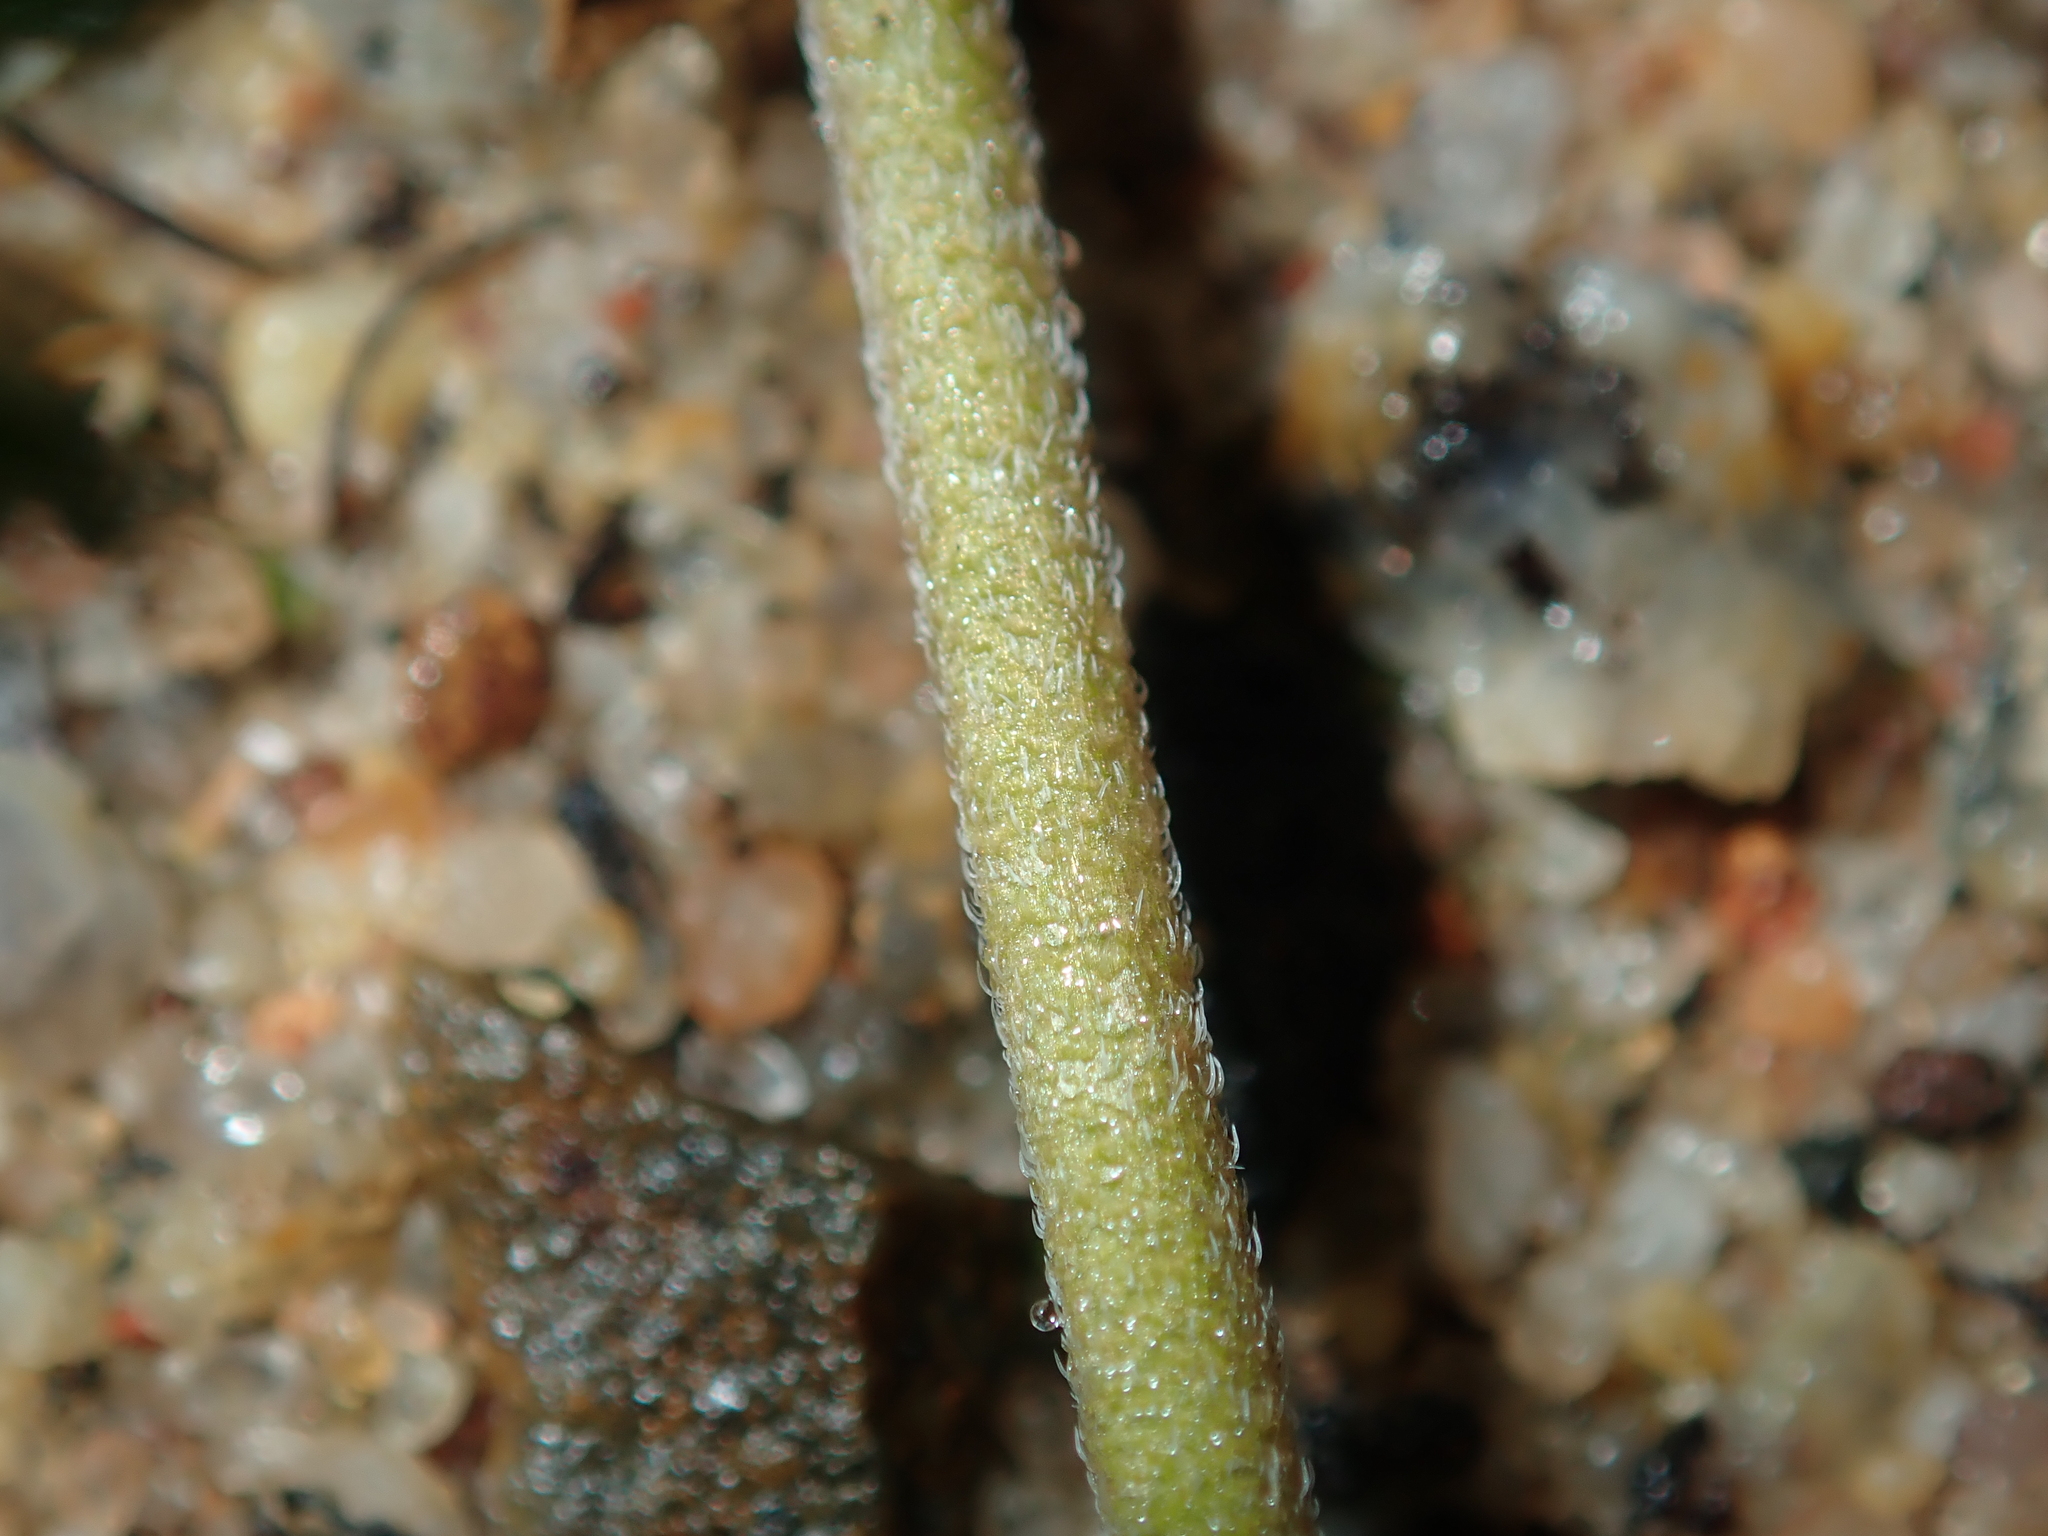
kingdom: Plantae
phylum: Tracheophyta
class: Magnoliopsida
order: Geraniales
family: Geraniaceae
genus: Erodium
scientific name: Erodium cygnorum
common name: Western stork's-bill
